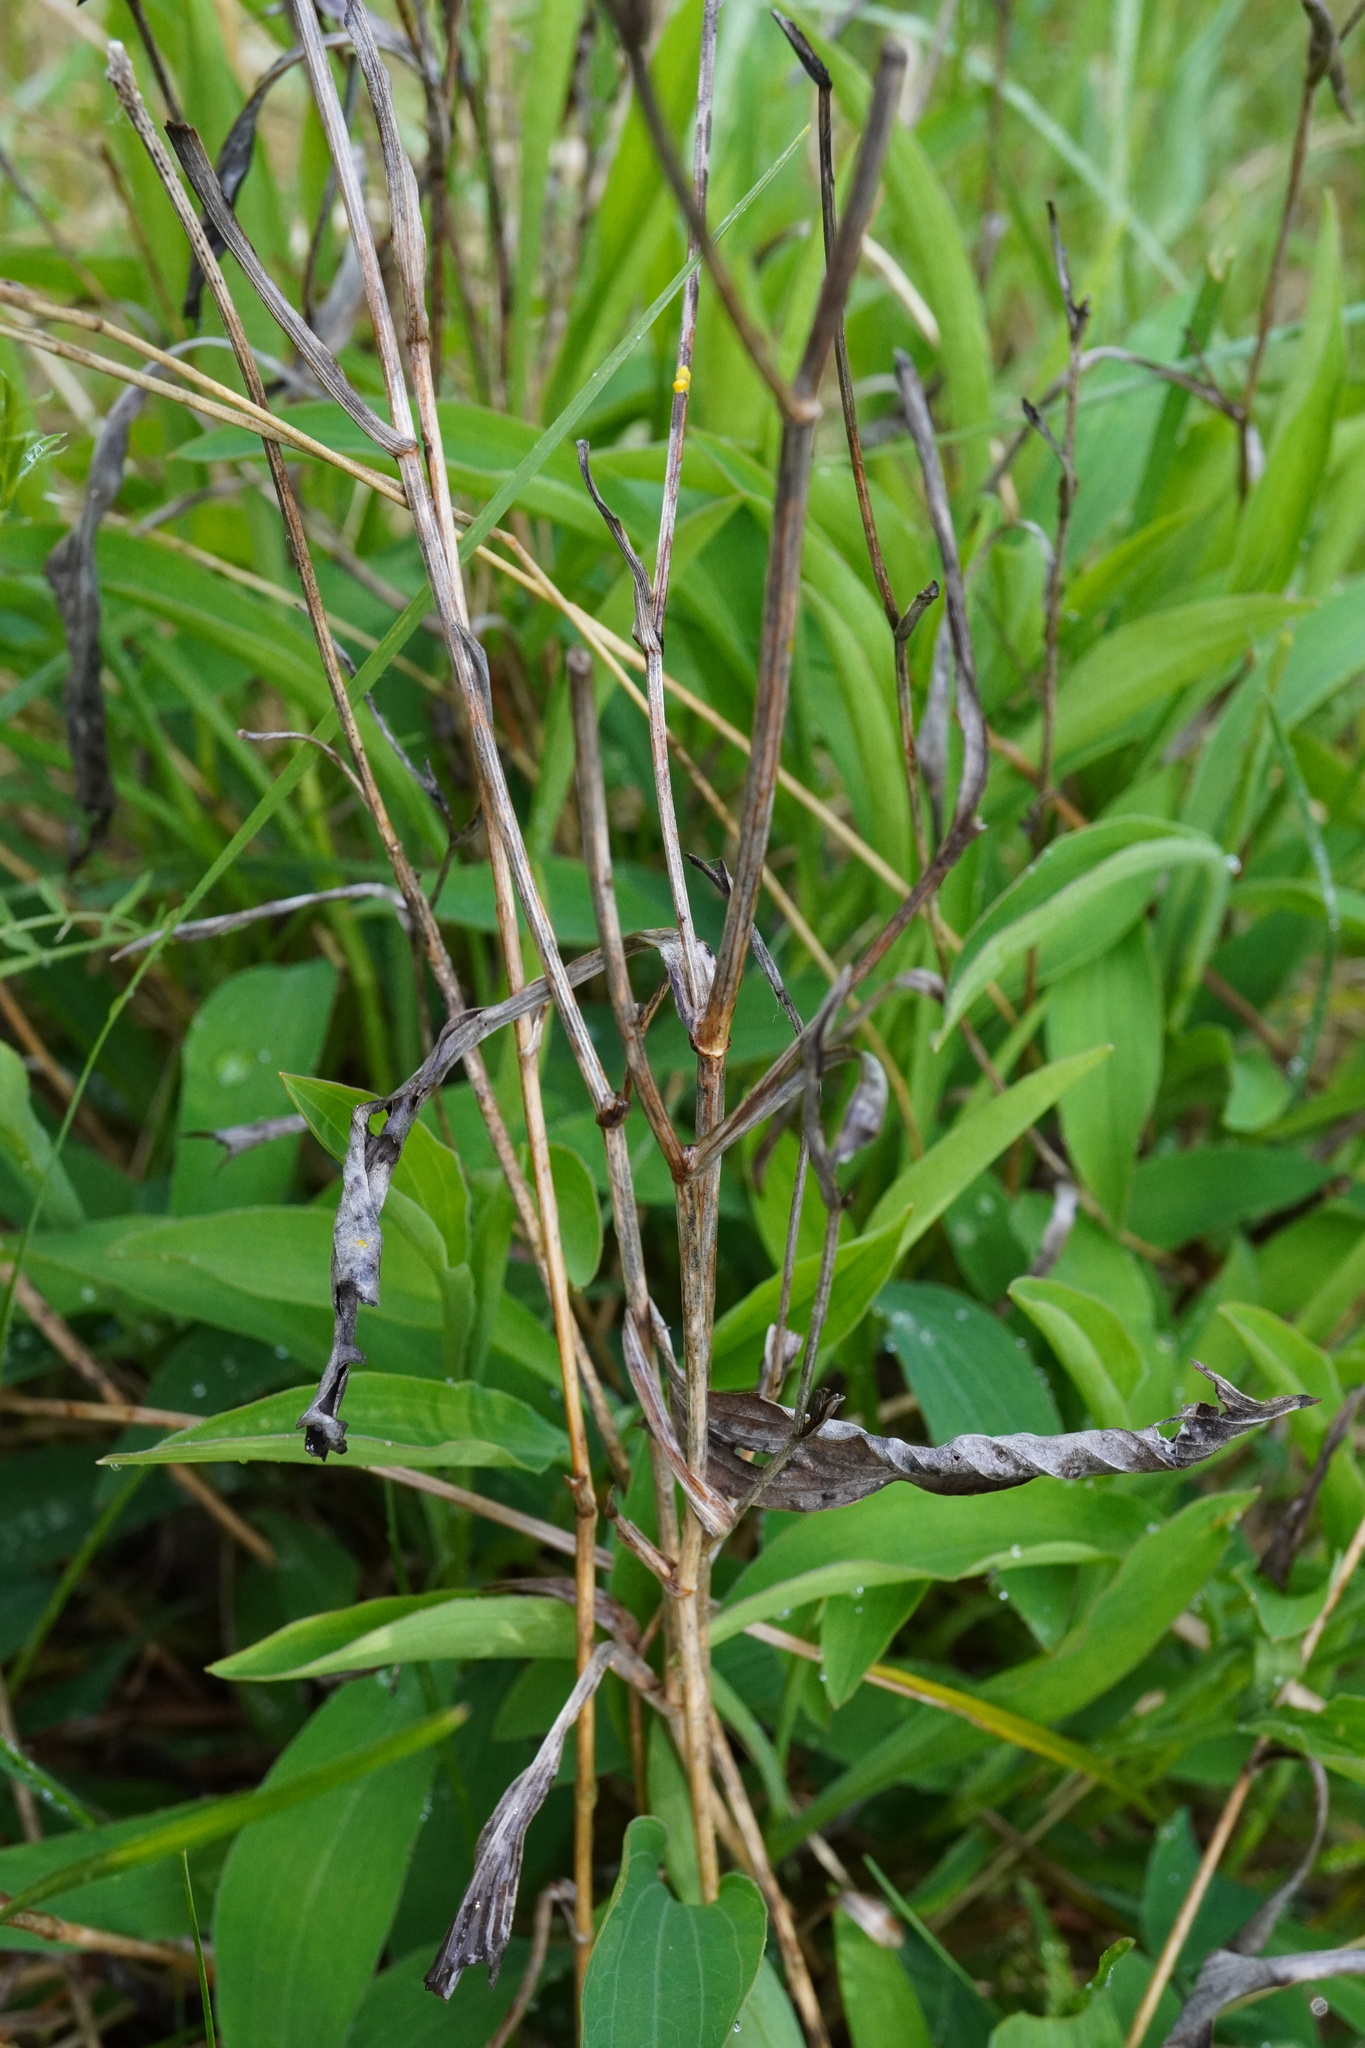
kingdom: Plantae
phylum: Tracheophyta
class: Magnoliopsida
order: Apiales
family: Apiaceae
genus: Bupleurum
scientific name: Bupleurum falcatum
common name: Sickle-leaved hare's-ear
